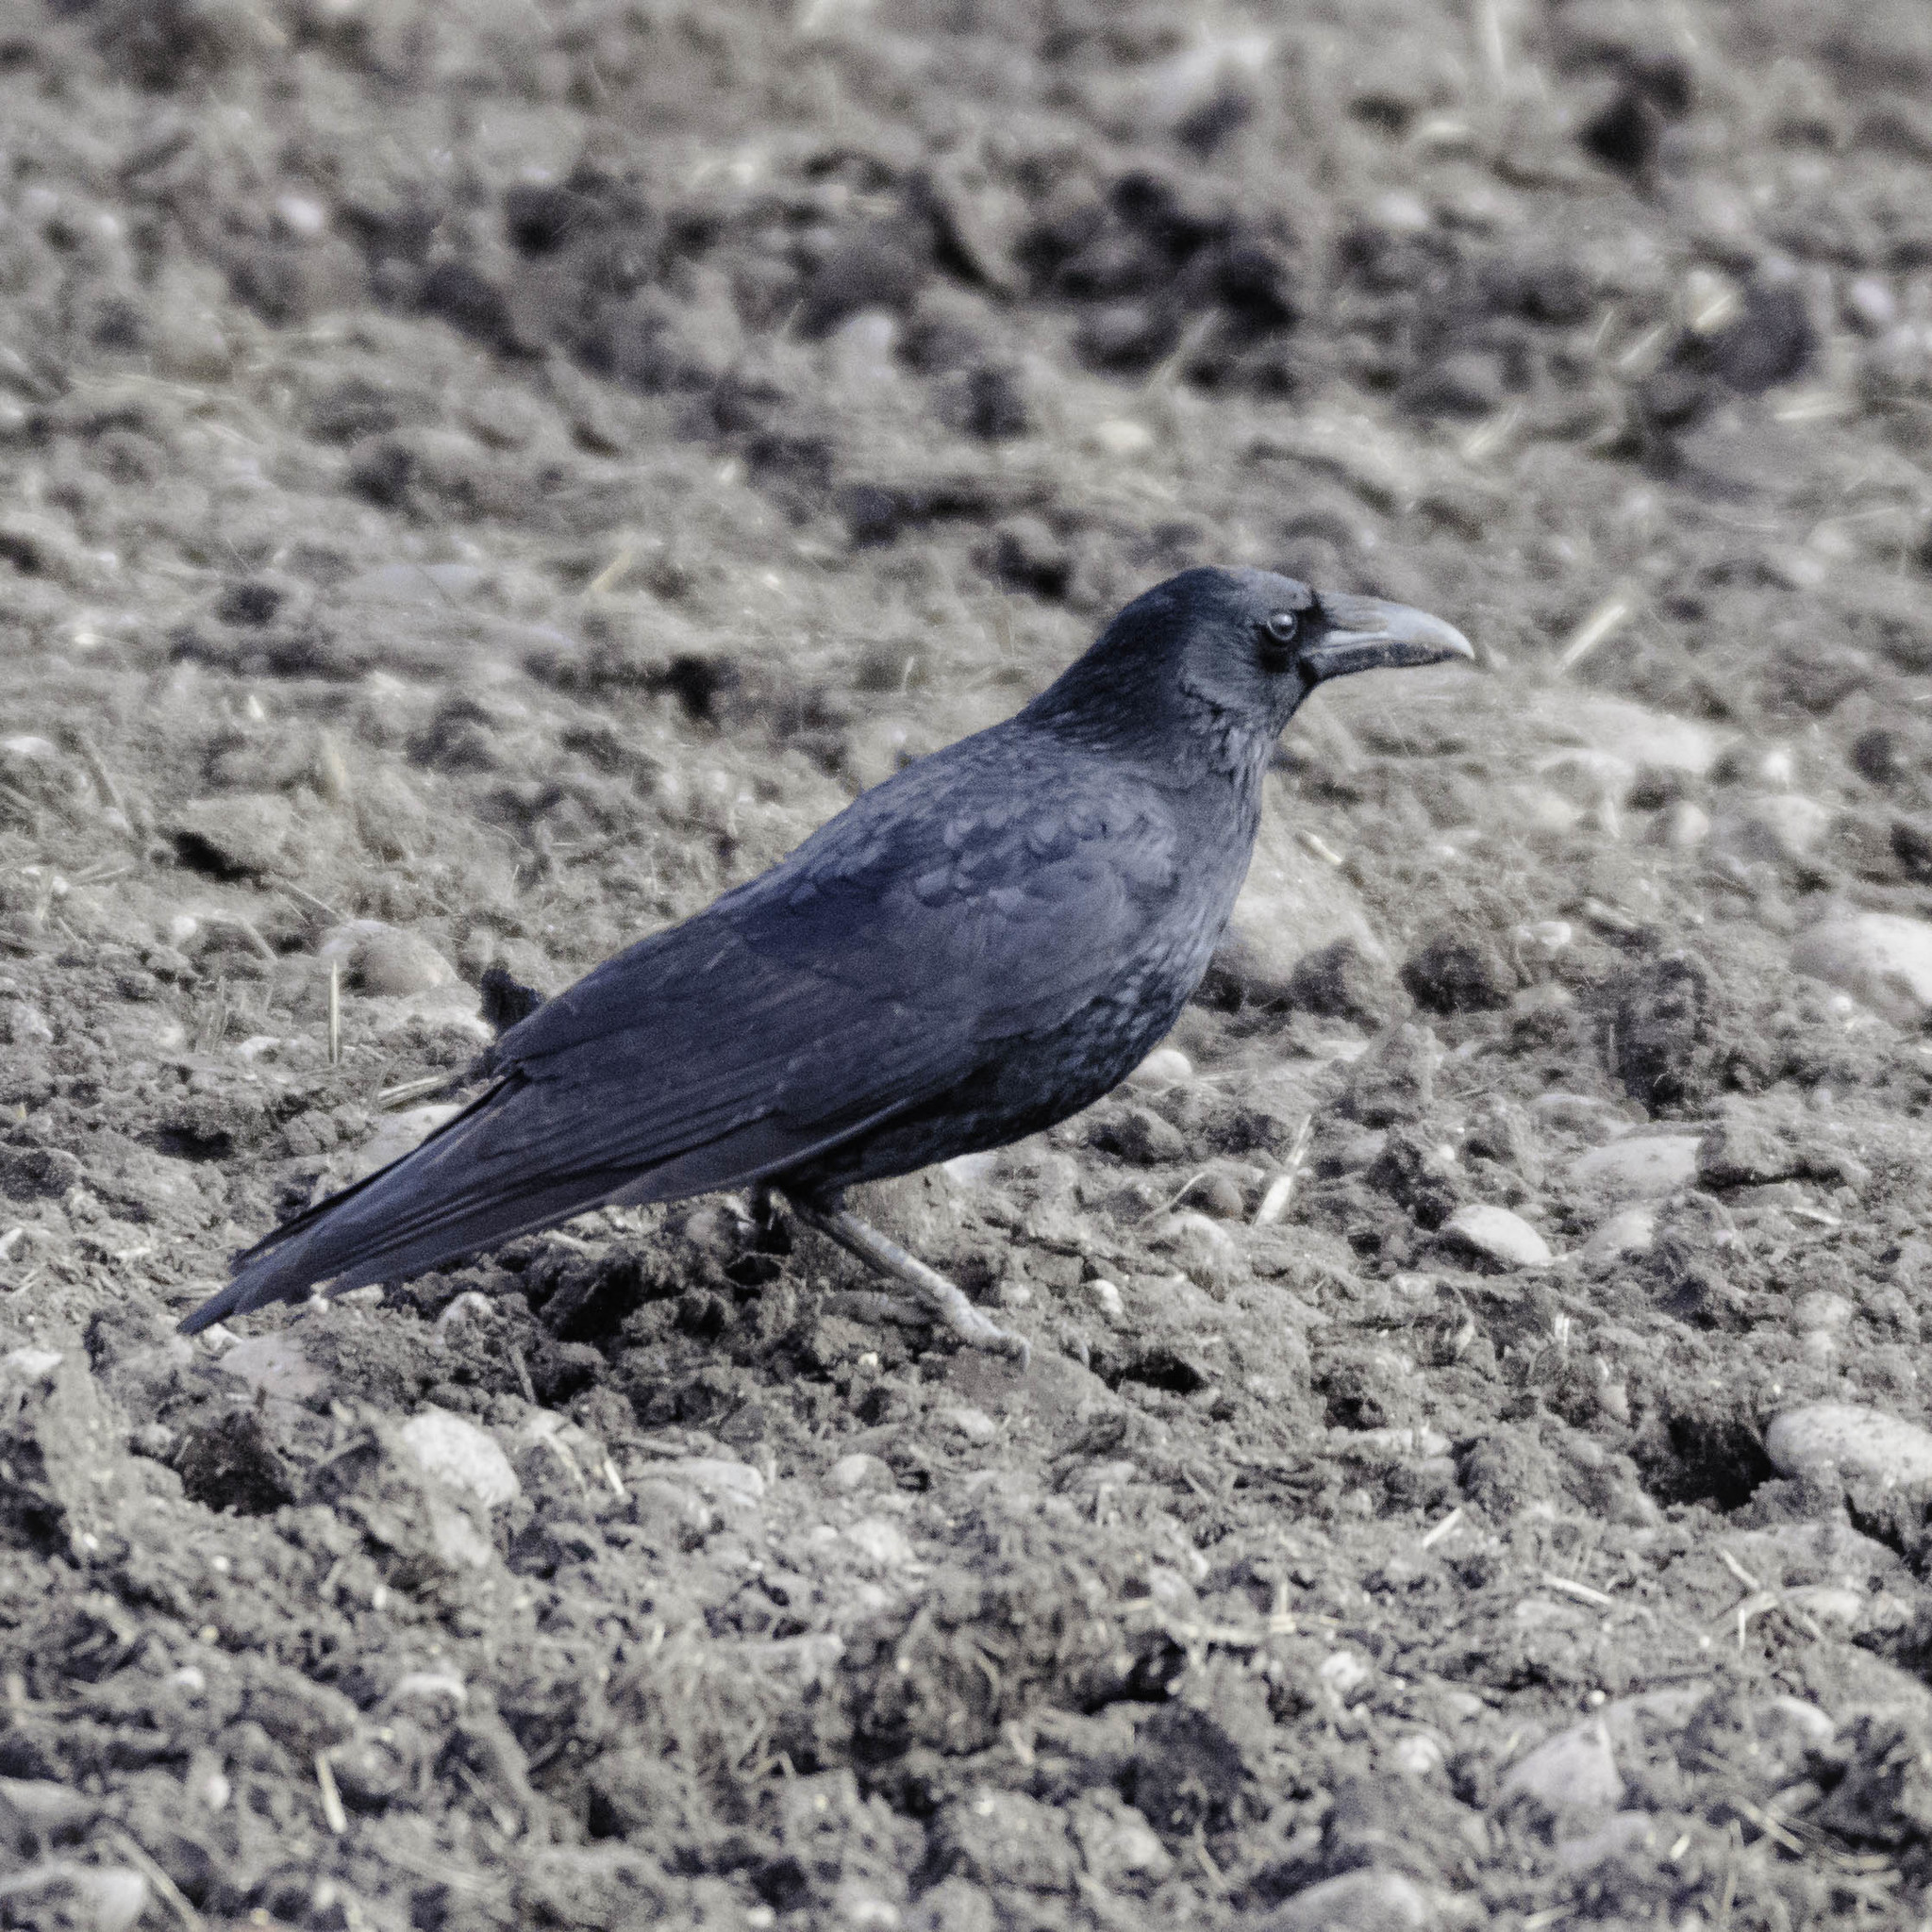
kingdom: Animalia
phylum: Chordata
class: Aves
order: Passeriformes
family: Corvidae
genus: Corvus
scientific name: Corvus corone
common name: Carrion crow
